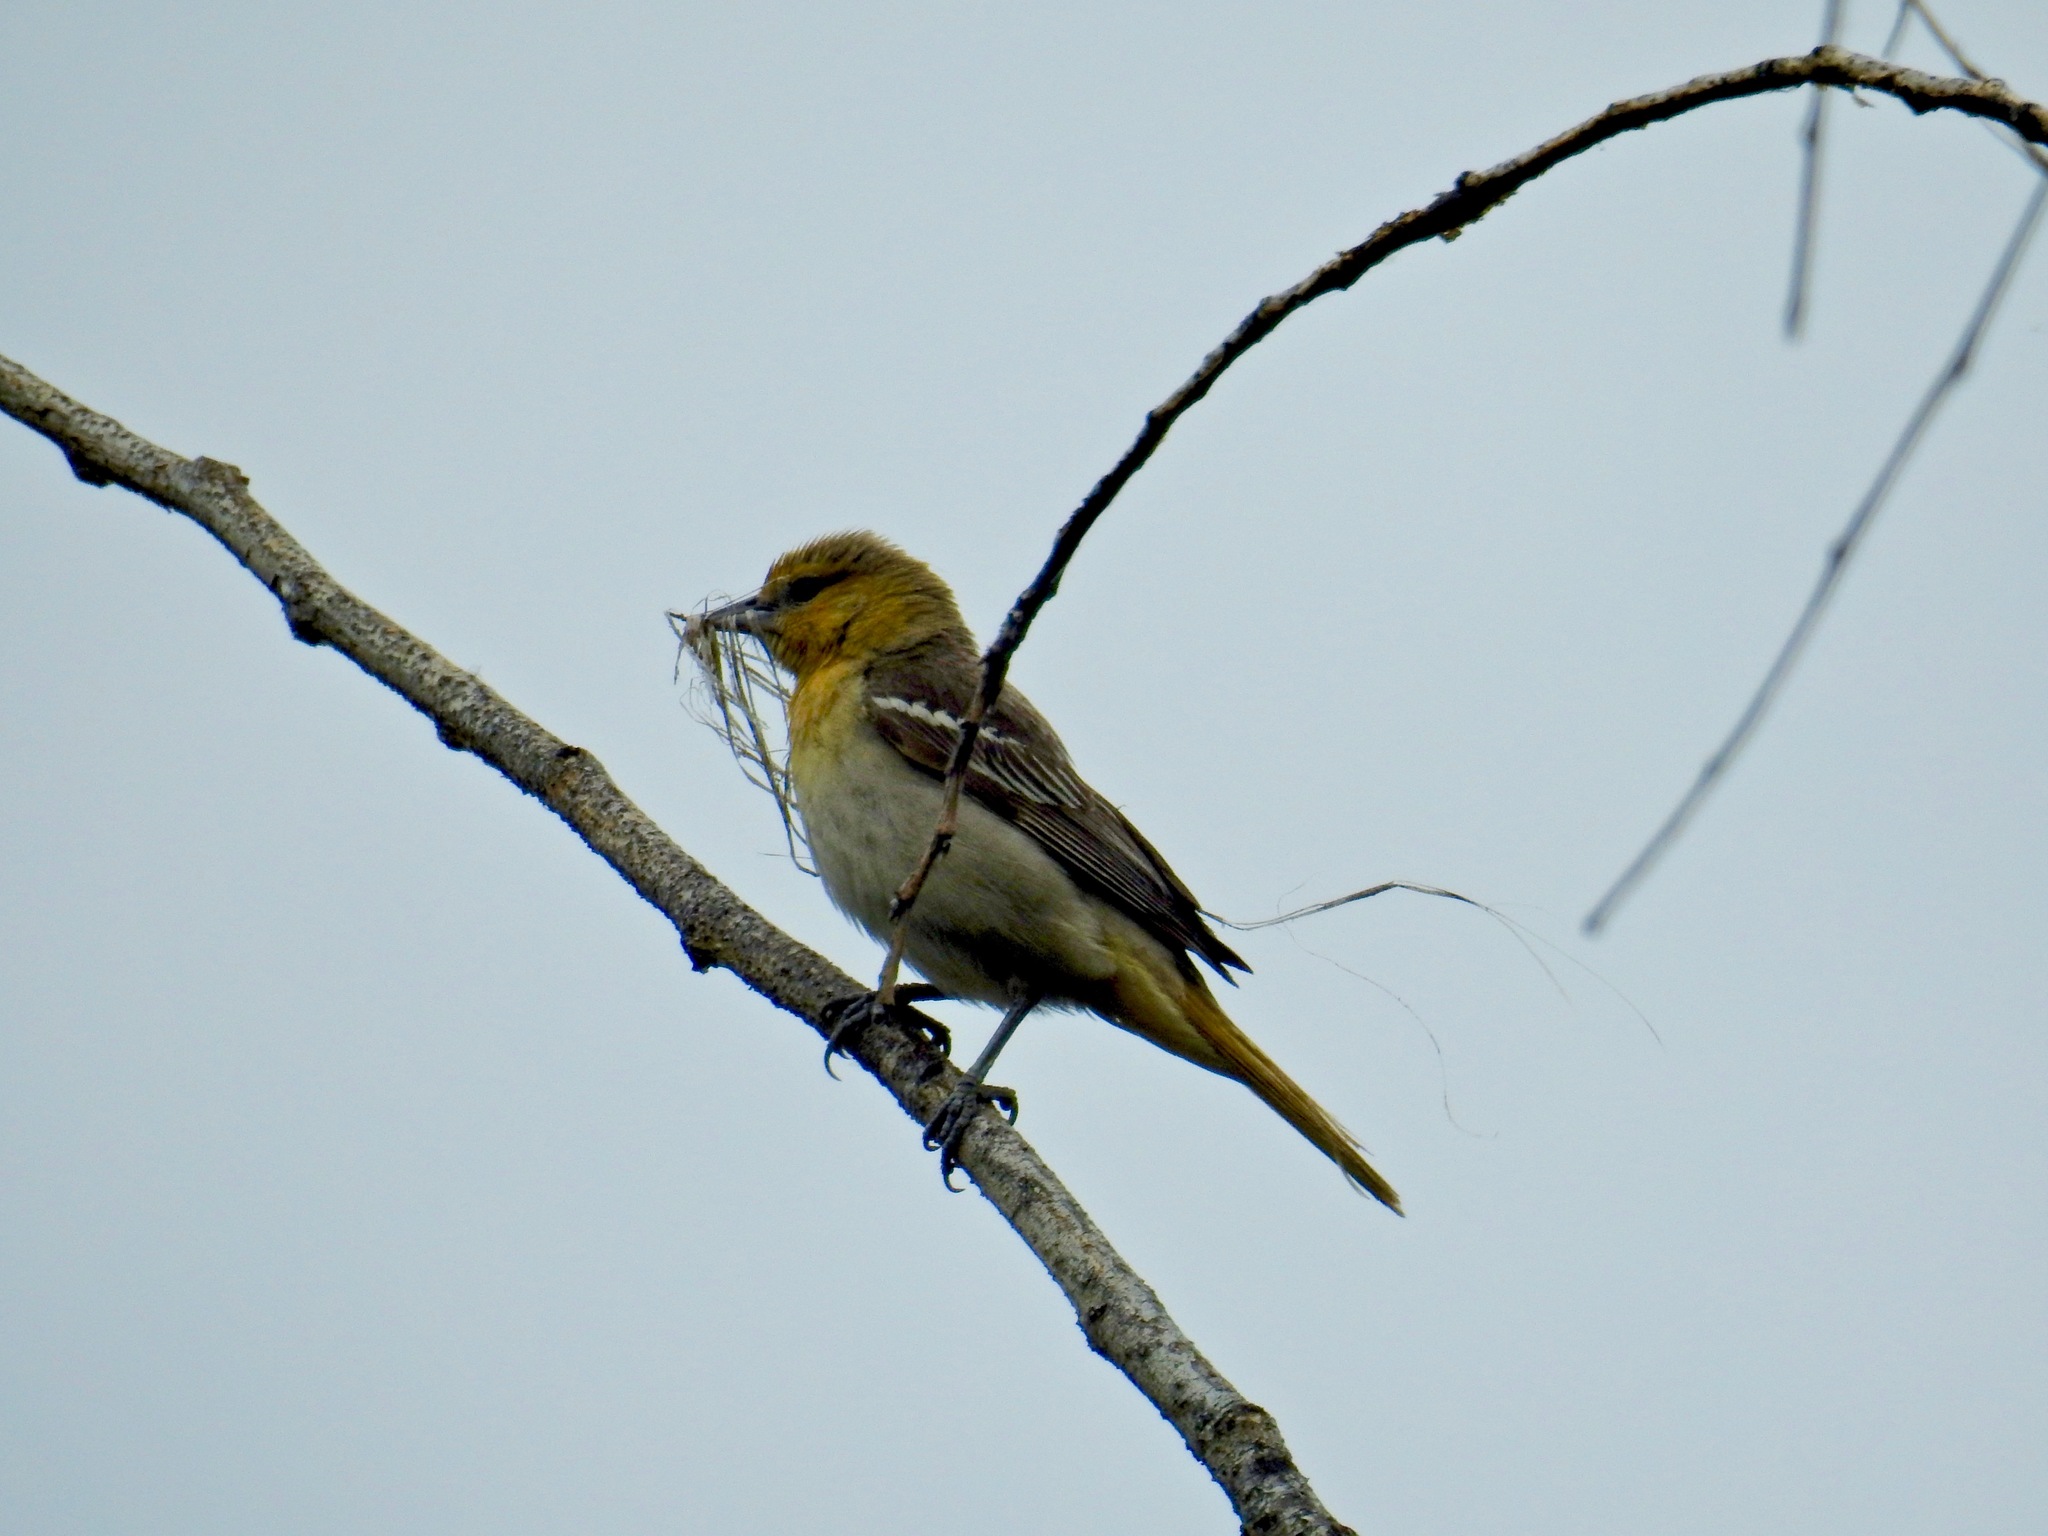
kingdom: Animalia
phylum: Chordata
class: Aves
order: Passeriformes
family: Icteridae
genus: Icterus
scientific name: Icterus bullockii
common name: Bullock's oriole
